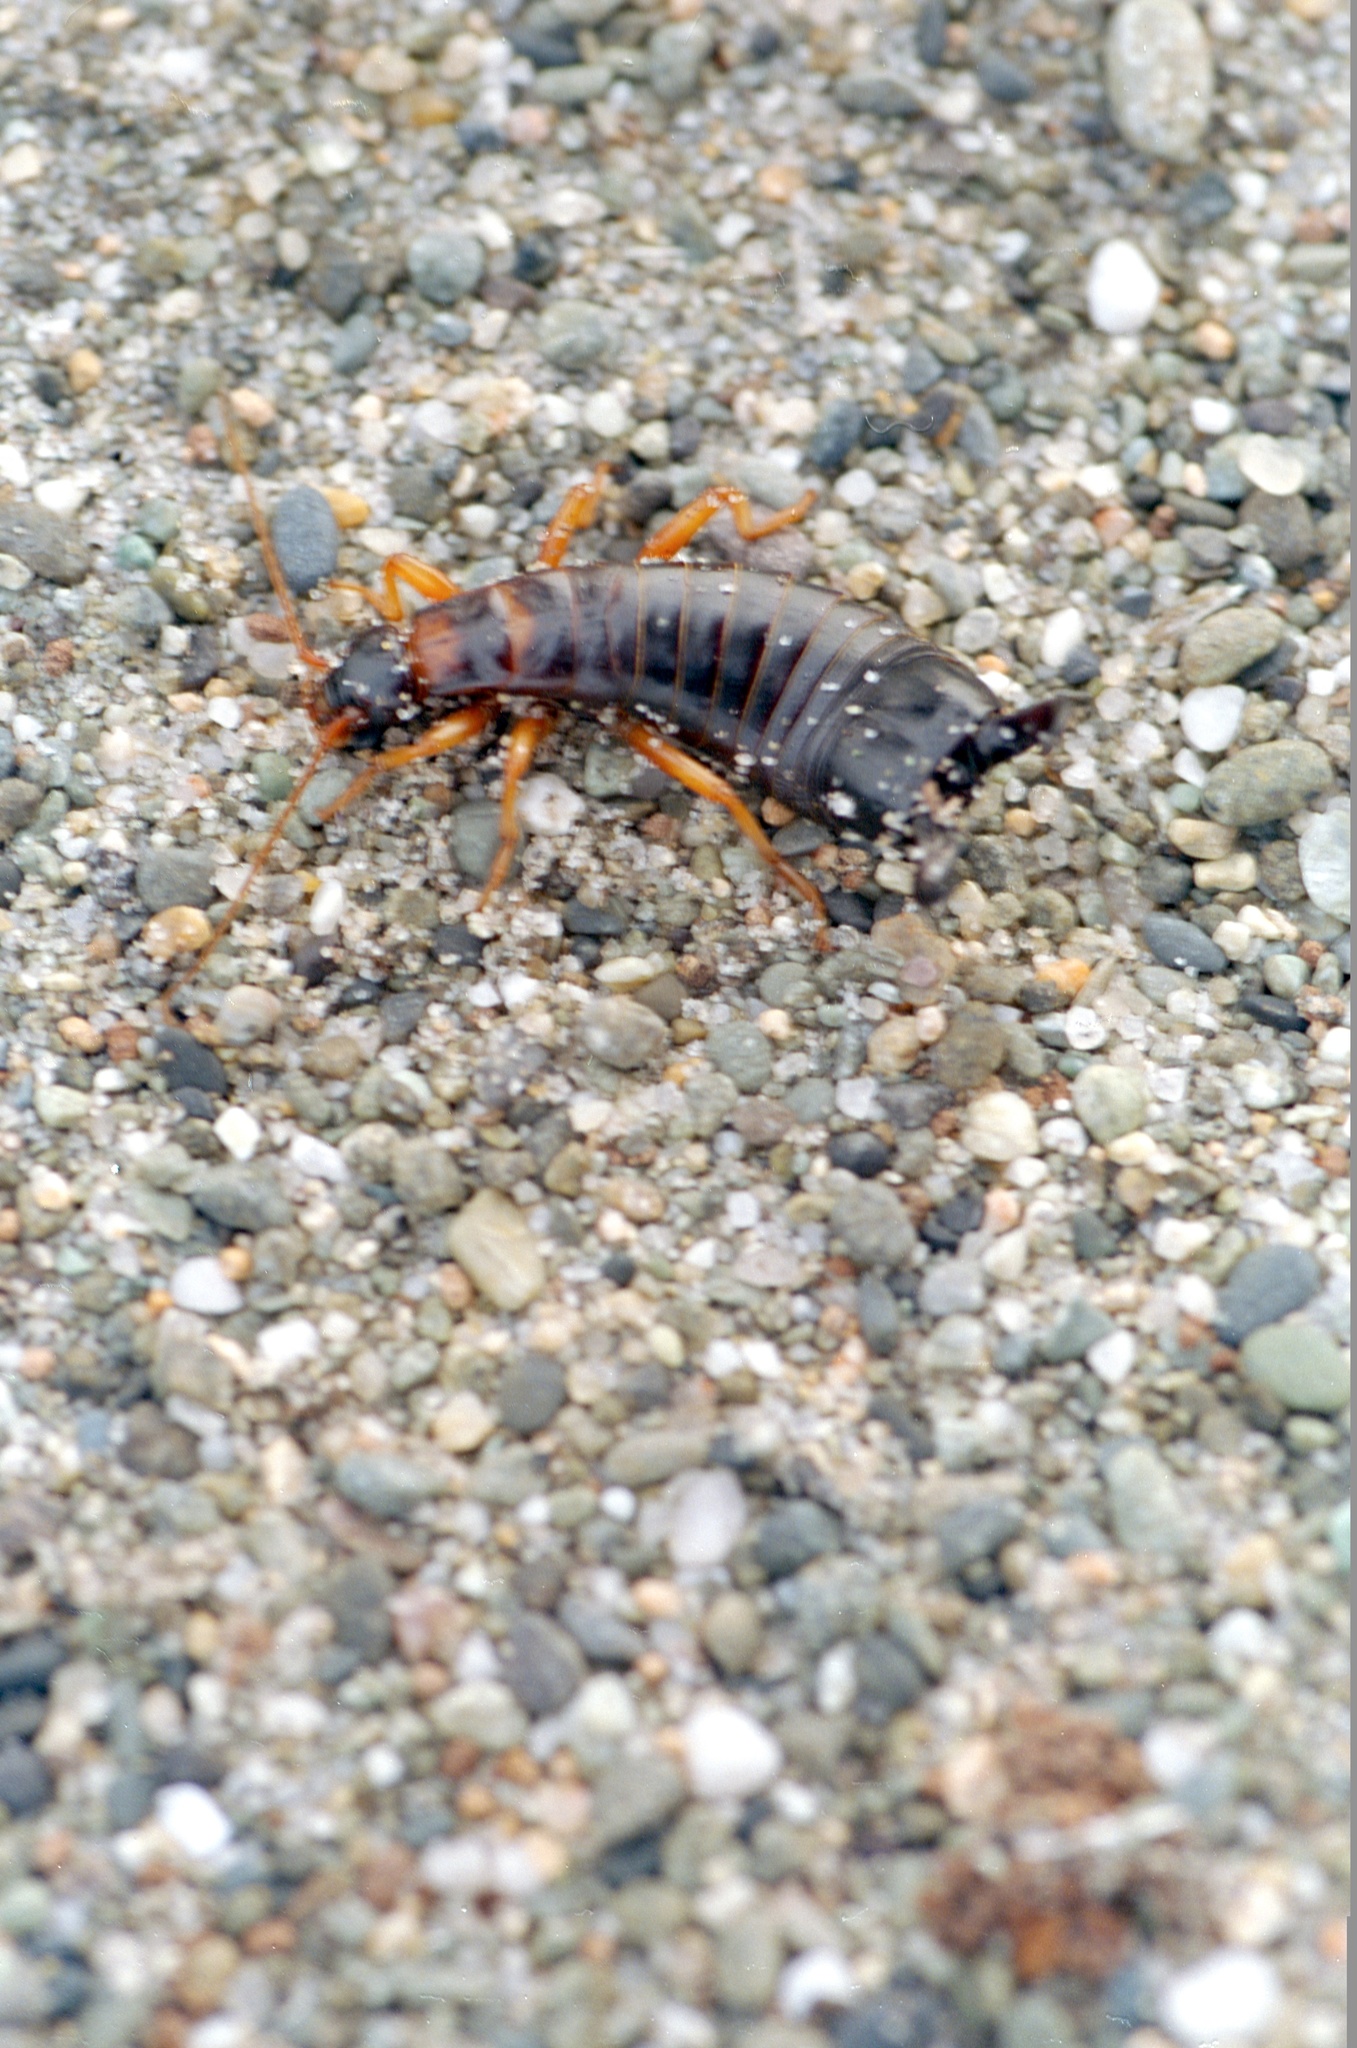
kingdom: Animalia
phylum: Arthropoda
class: Insecta
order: Dermaptera
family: Anisolabididae
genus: Anisolabis
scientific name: Anisolabis littorea
